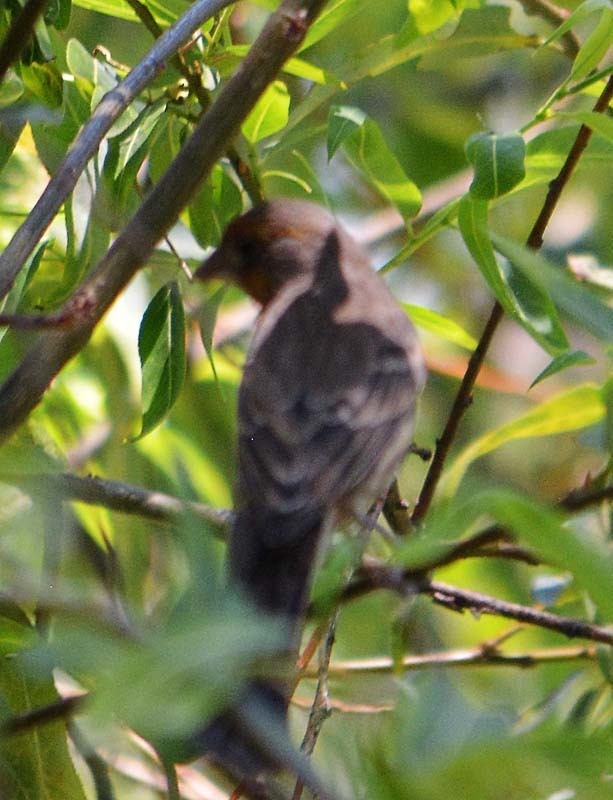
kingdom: Animalia
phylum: Chordata
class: Aves
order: Passeriformes
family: Fringillidae
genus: Haemorhous
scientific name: Haemorhous mexicanus
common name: House finch
